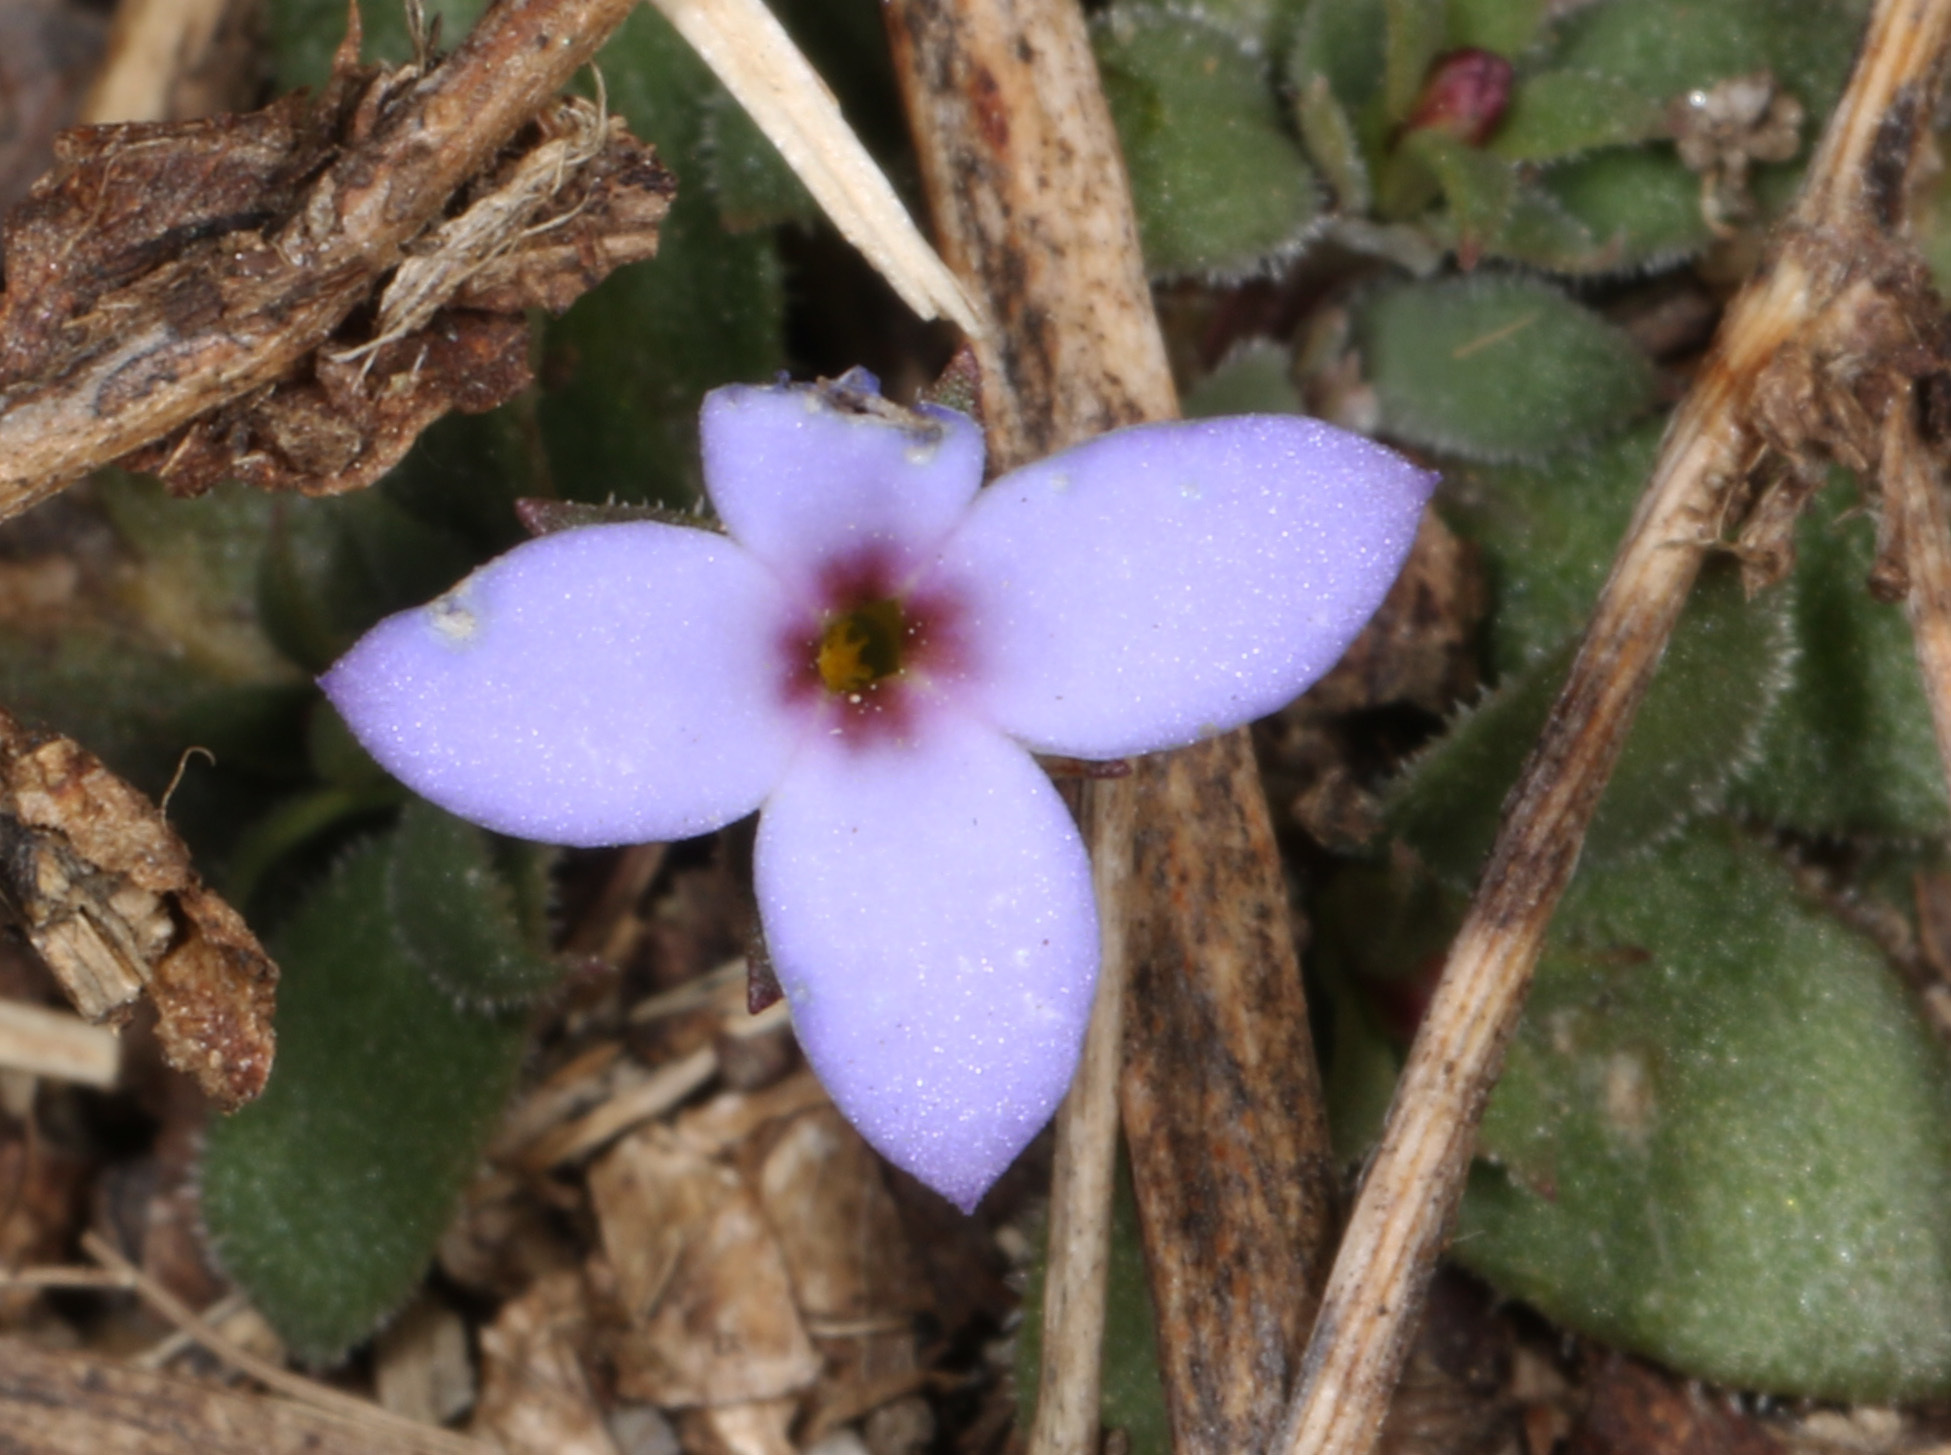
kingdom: Plantae
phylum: Tracheophyta
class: Magnoliopsida
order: Gentianales
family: Rubiaceae
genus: Houstonia
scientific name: Houstonia pusilla
